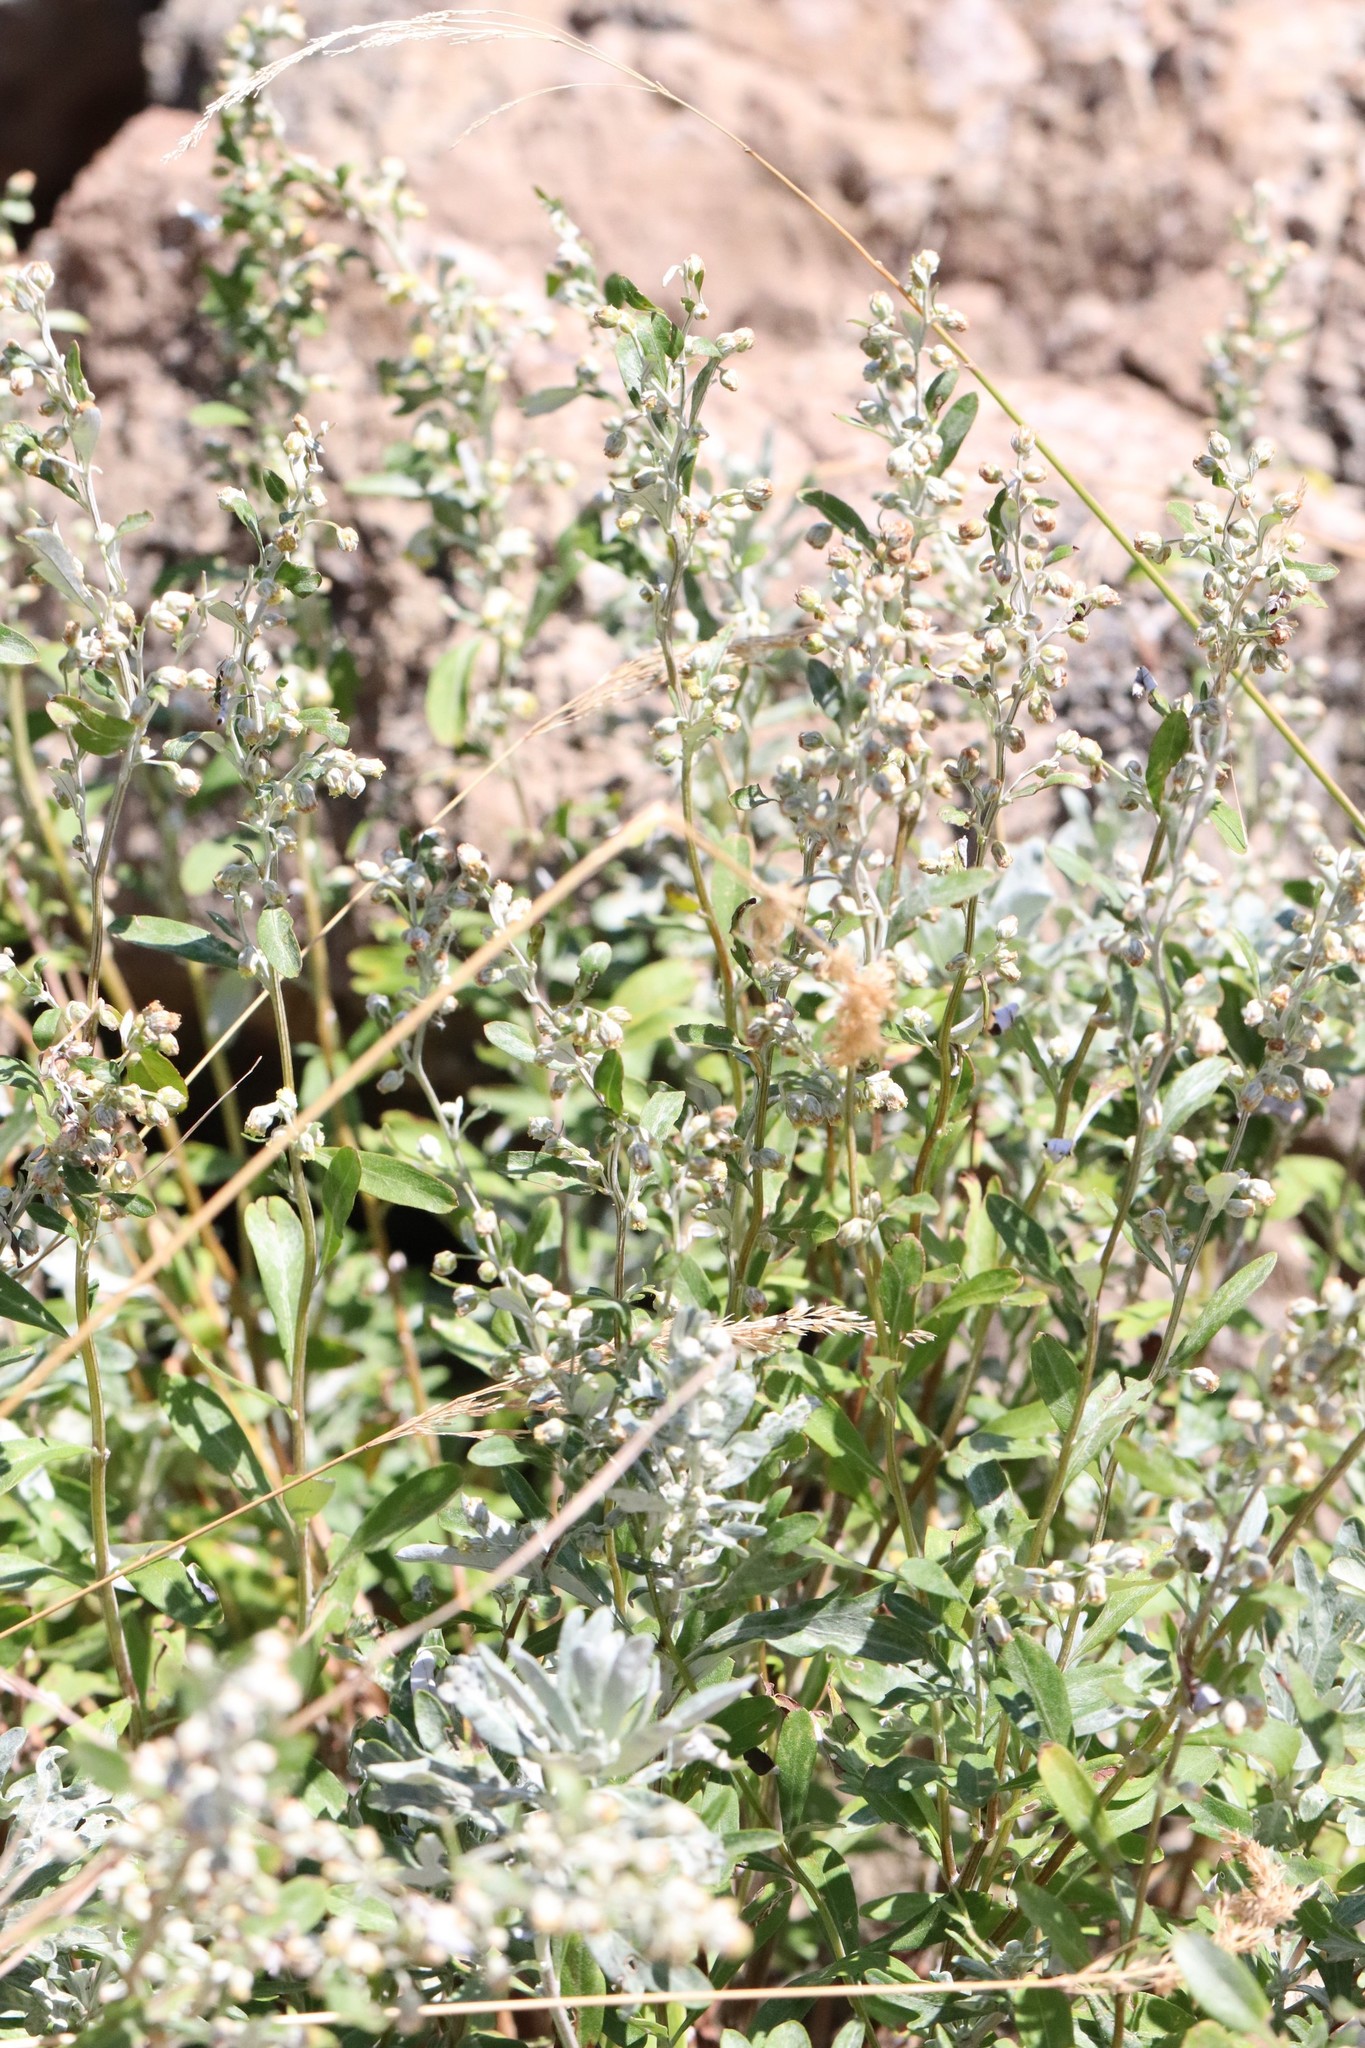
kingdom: Plantae
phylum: Tracheophyta
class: Magnoliopsida
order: Asterales
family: Asteraceae
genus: Artemisia
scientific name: Artemisia lagocephala
